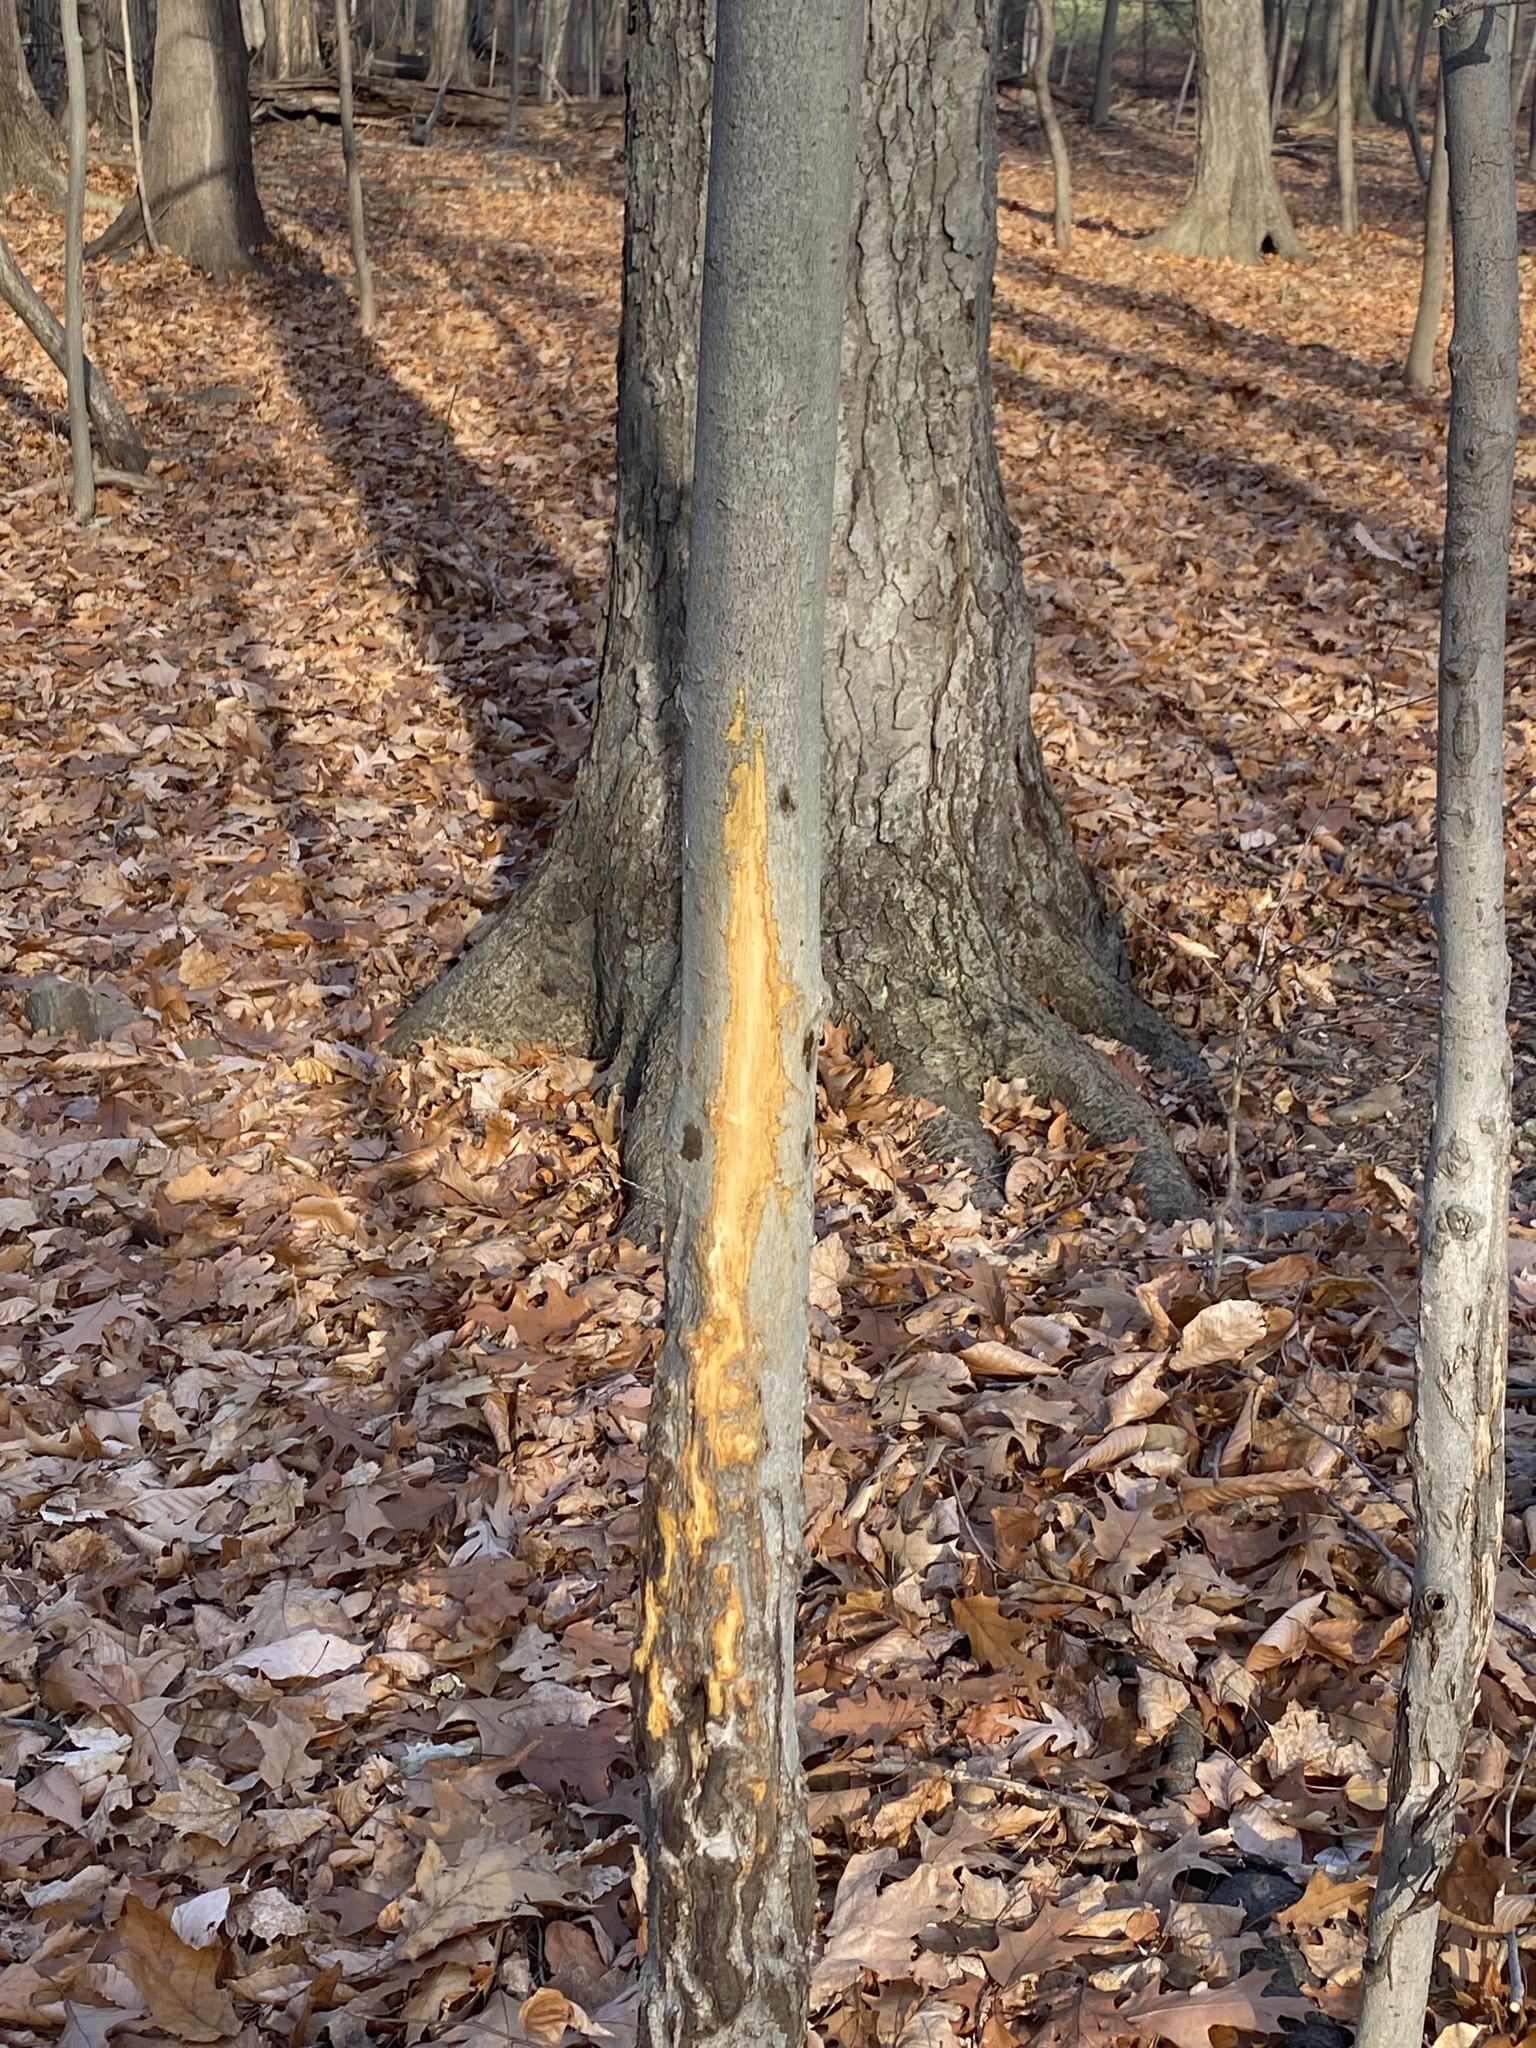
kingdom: Animalia
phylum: Chordata
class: Mammalia
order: Artiodactyla
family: Cervidae
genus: Odocoileus
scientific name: Odocoileus virginianus
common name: White-tailed deer
